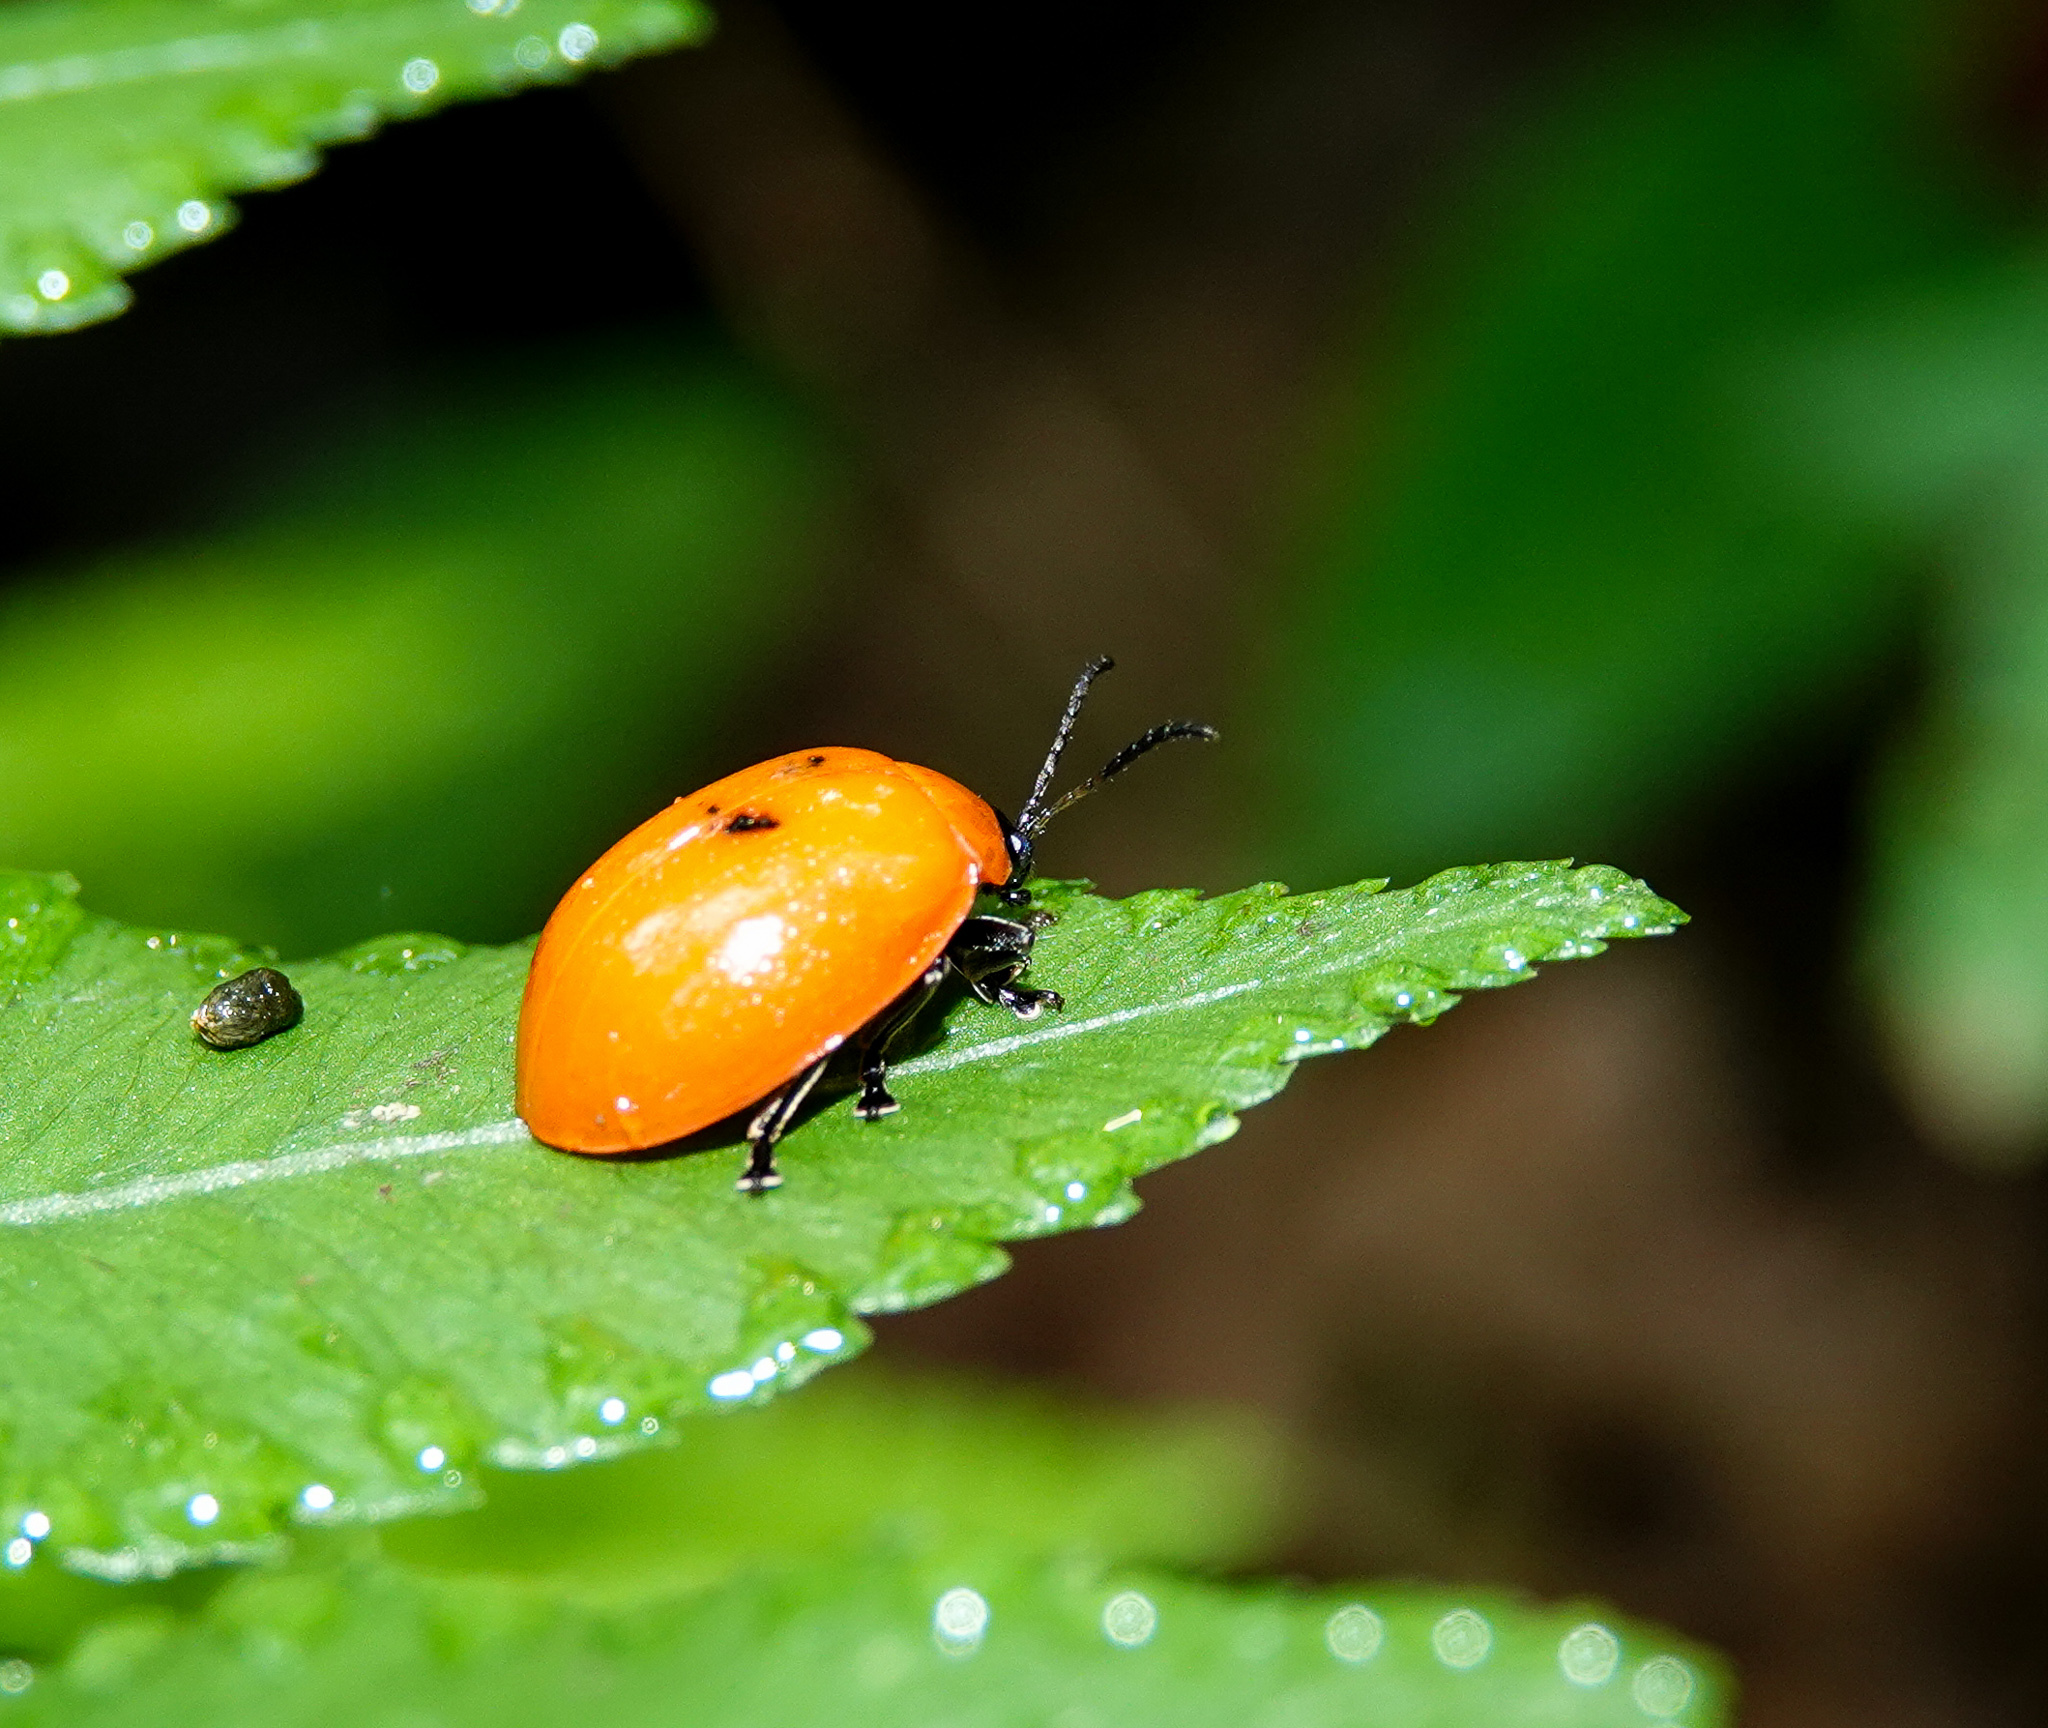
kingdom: Animalia
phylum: Arthropoda
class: Insecta
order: Coleoptera
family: Chrysomelidae
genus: Oides
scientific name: Oides livida
